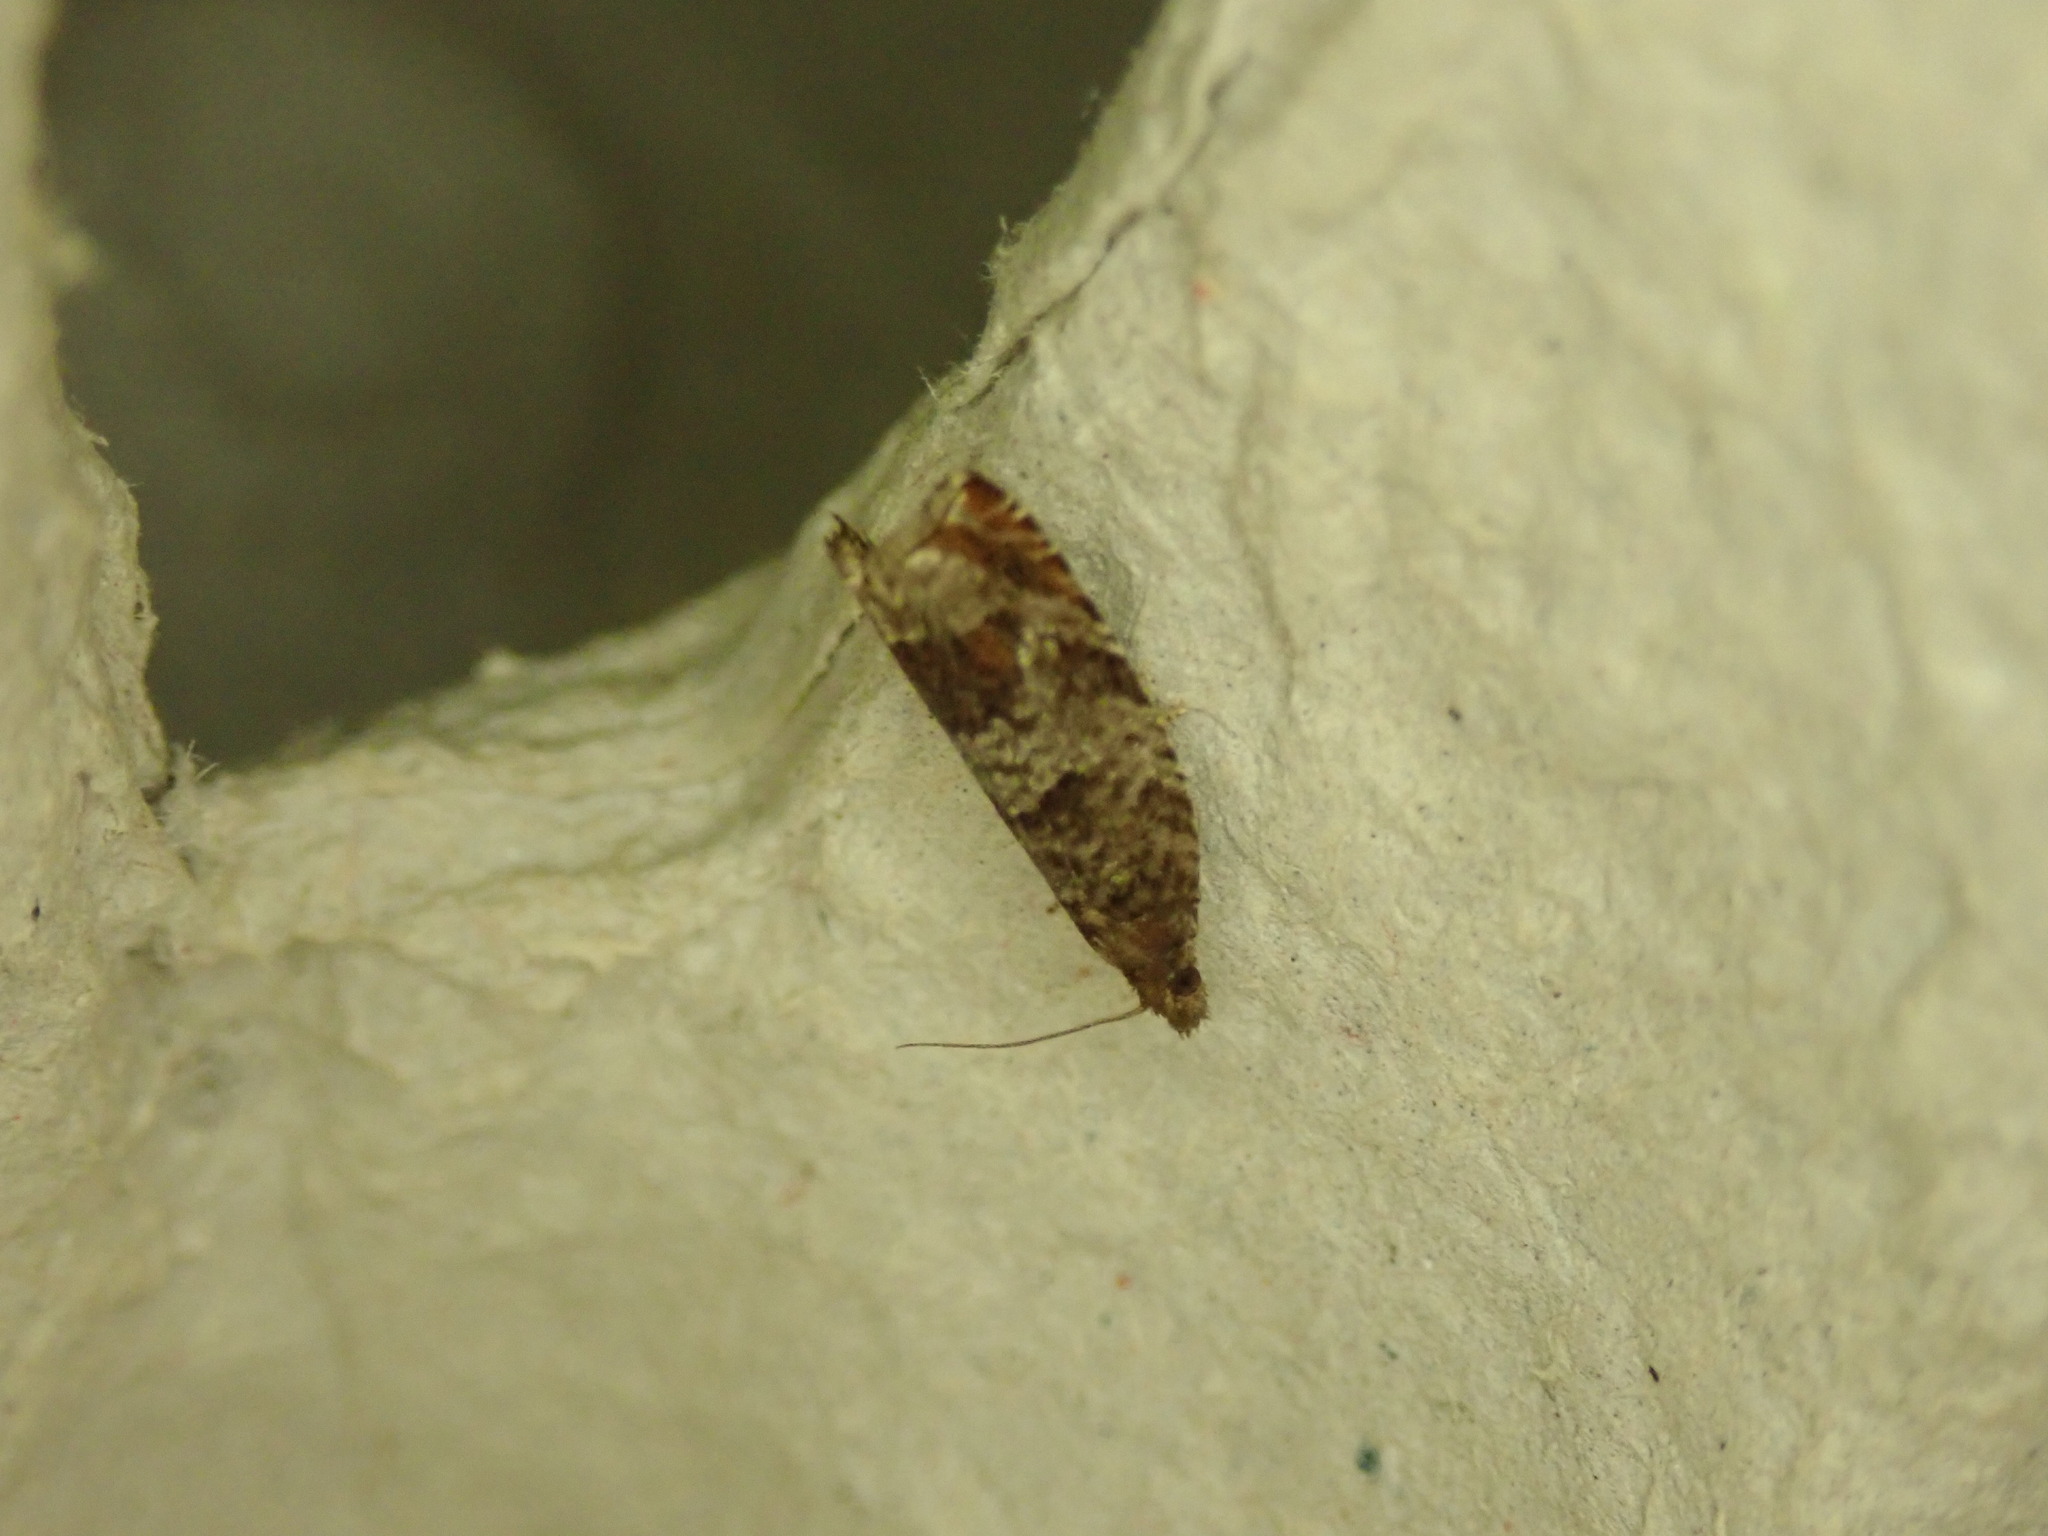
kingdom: Animalia
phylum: Arthropoda
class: Insecta
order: Lepidoptera
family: Tortricidae
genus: Ancylis
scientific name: Ancylis achatana
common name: Triangle-marked roller
